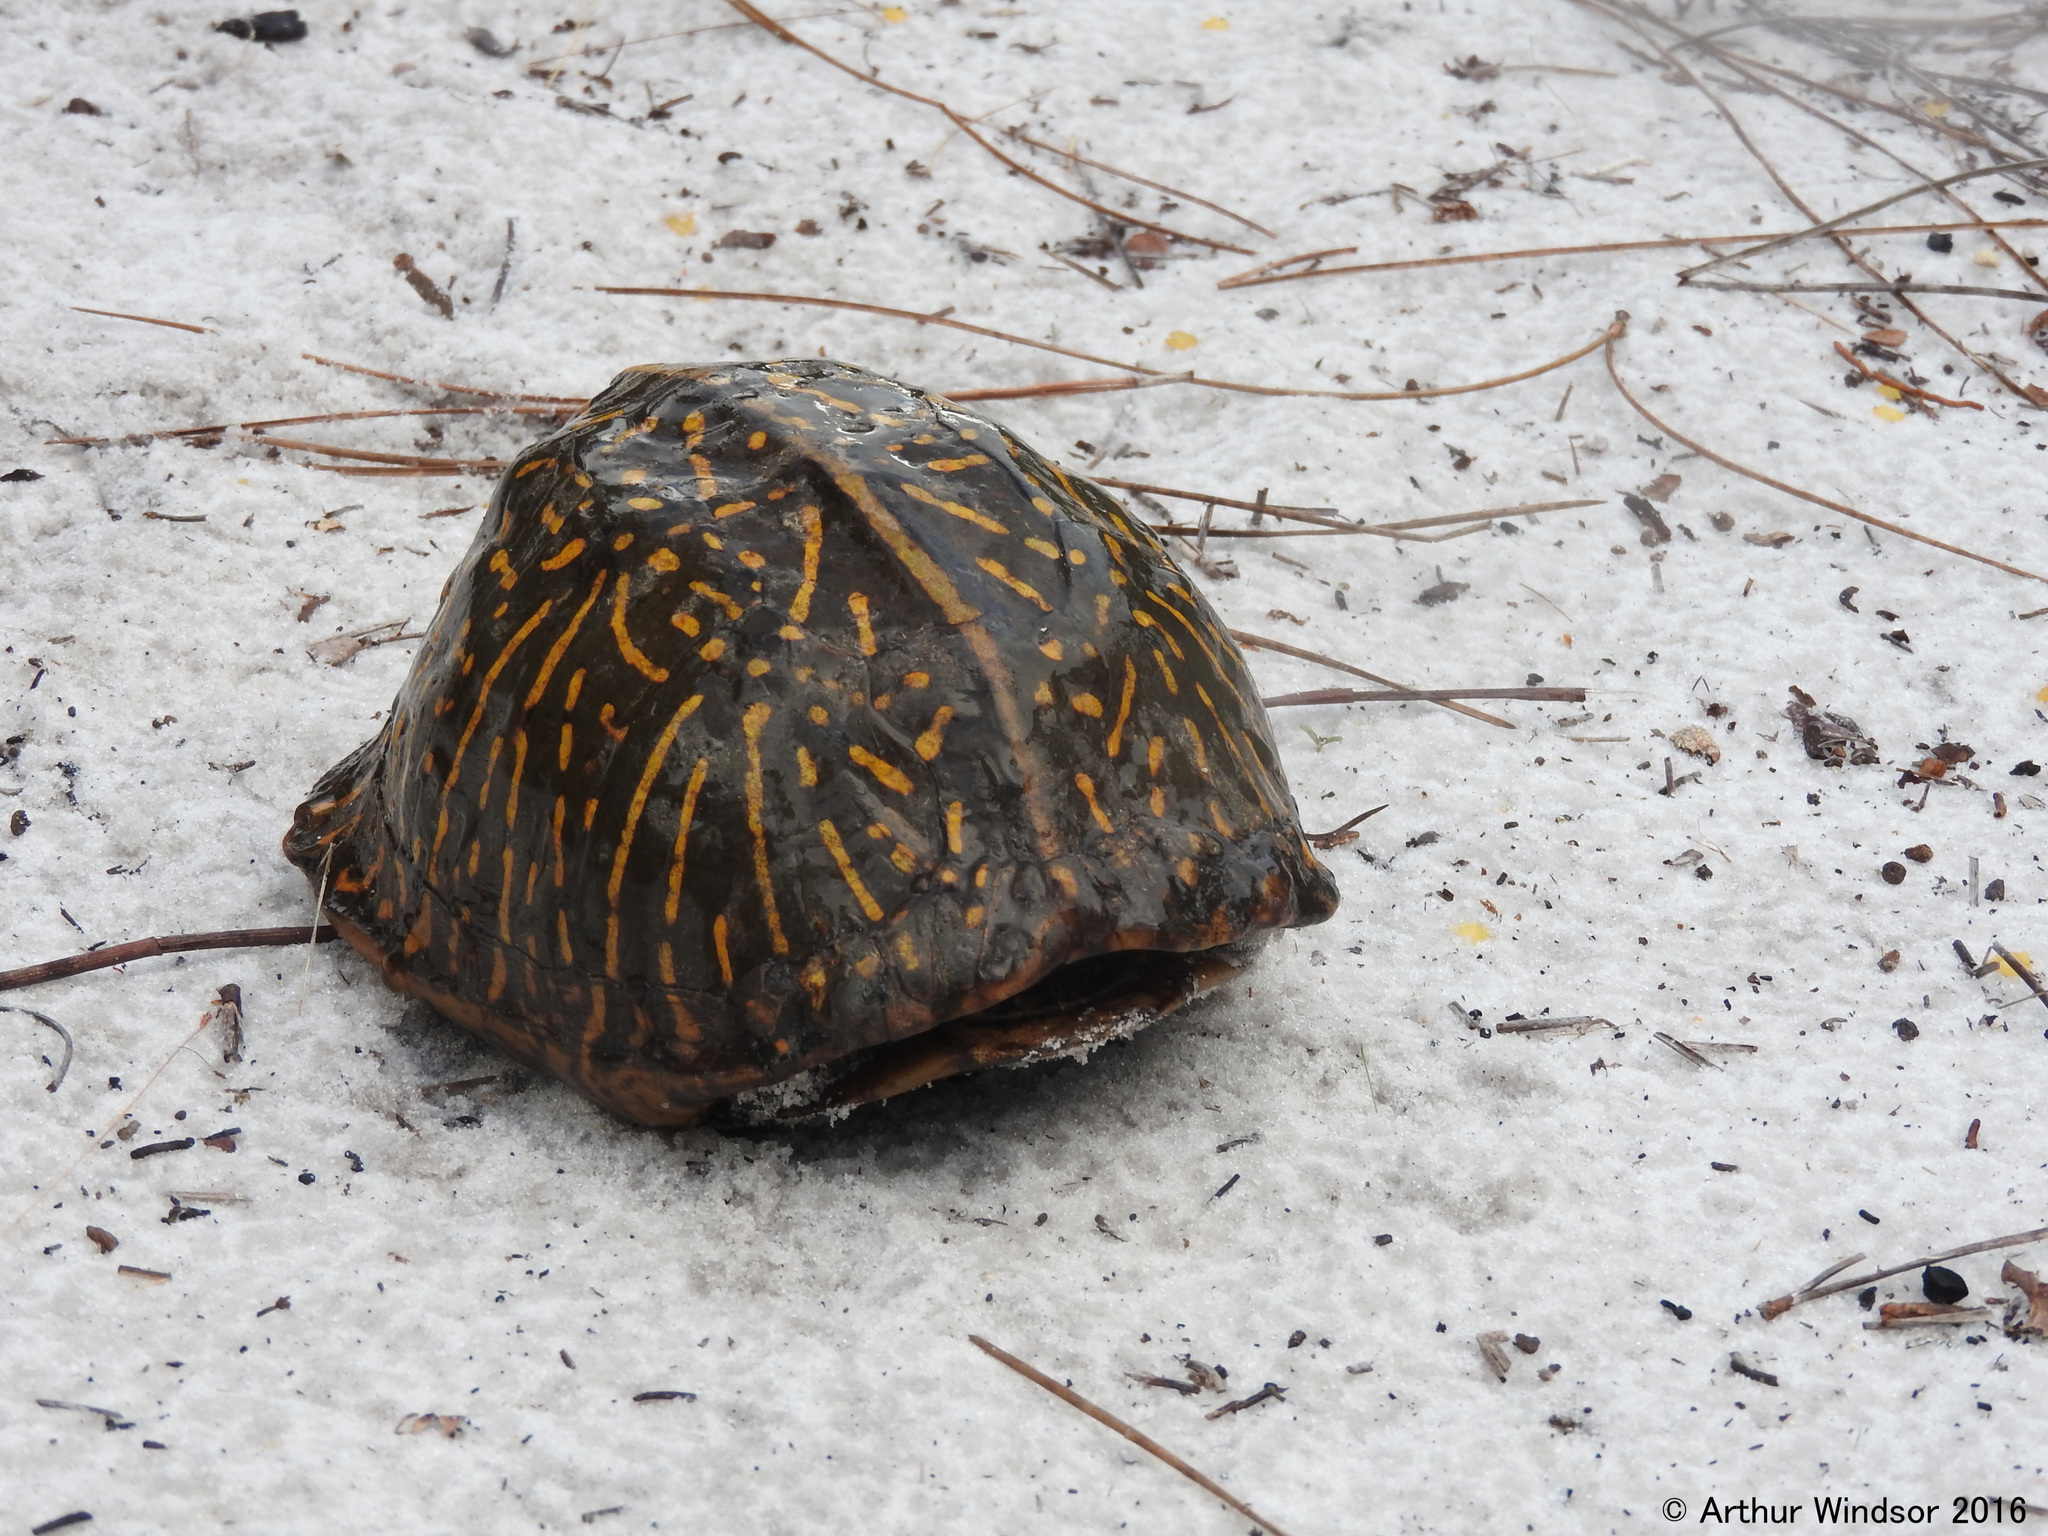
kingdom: Animalia
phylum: Chordata
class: Testudines
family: Emydidae
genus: Terrapene
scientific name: Terrapene carolina
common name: Common box turtle
